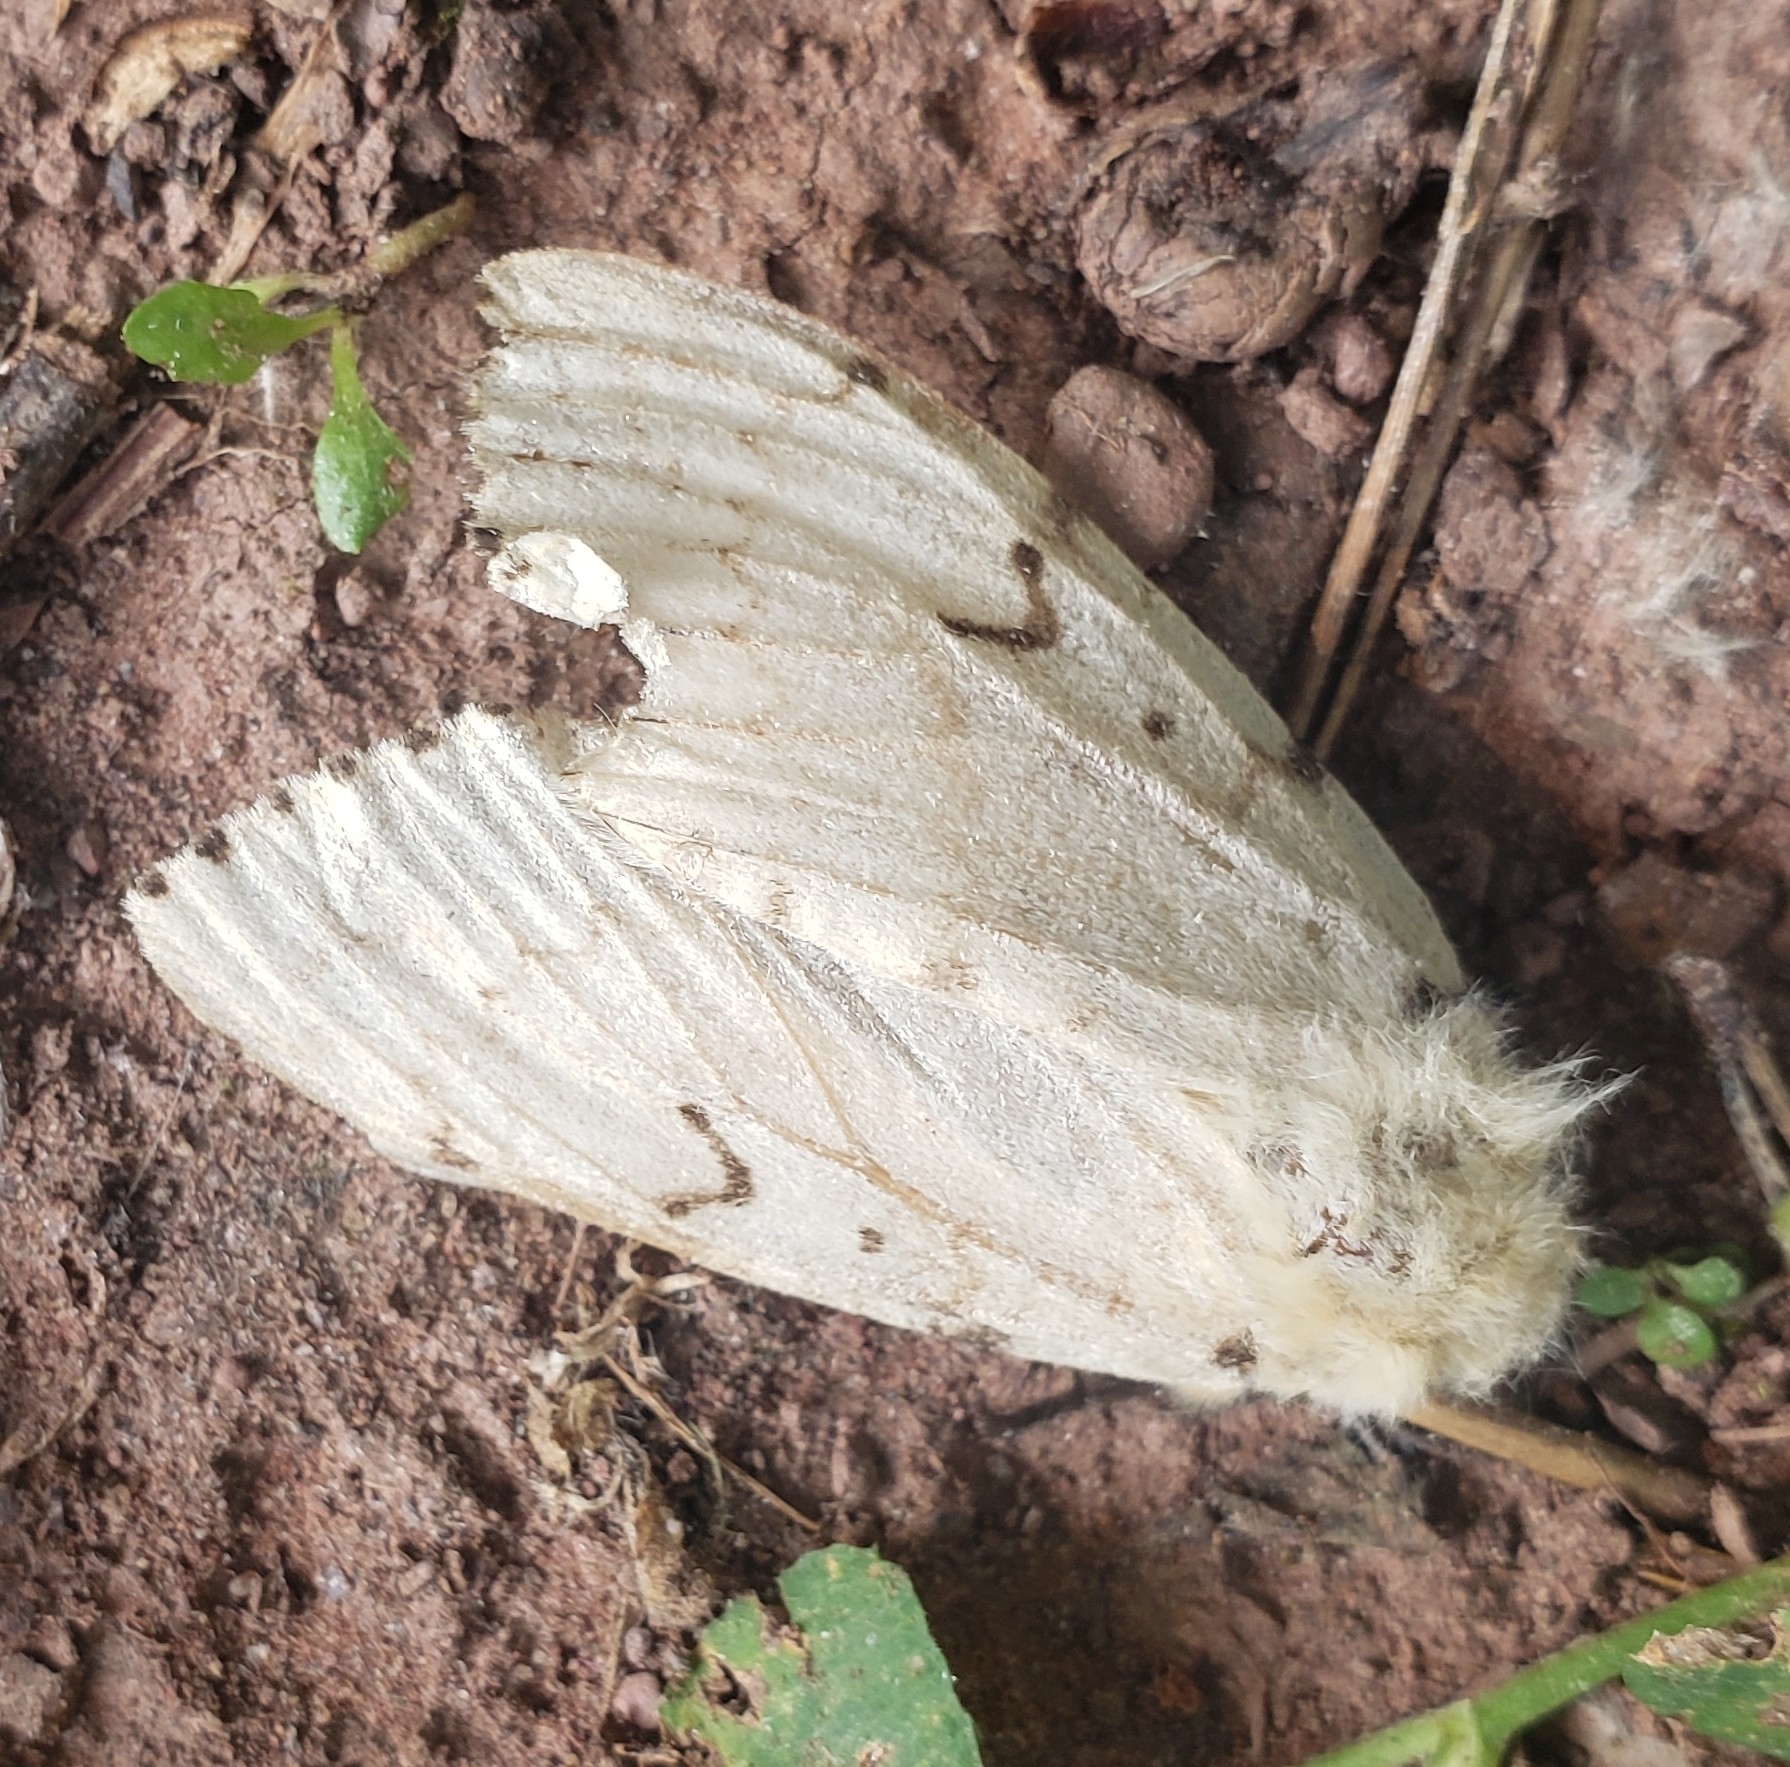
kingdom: Animalia
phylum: Arthropoda
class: Insecta
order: Lepidoptera
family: Erebidae
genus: Lymantria
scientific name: Lymantria dispar
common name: Gypsy moth
